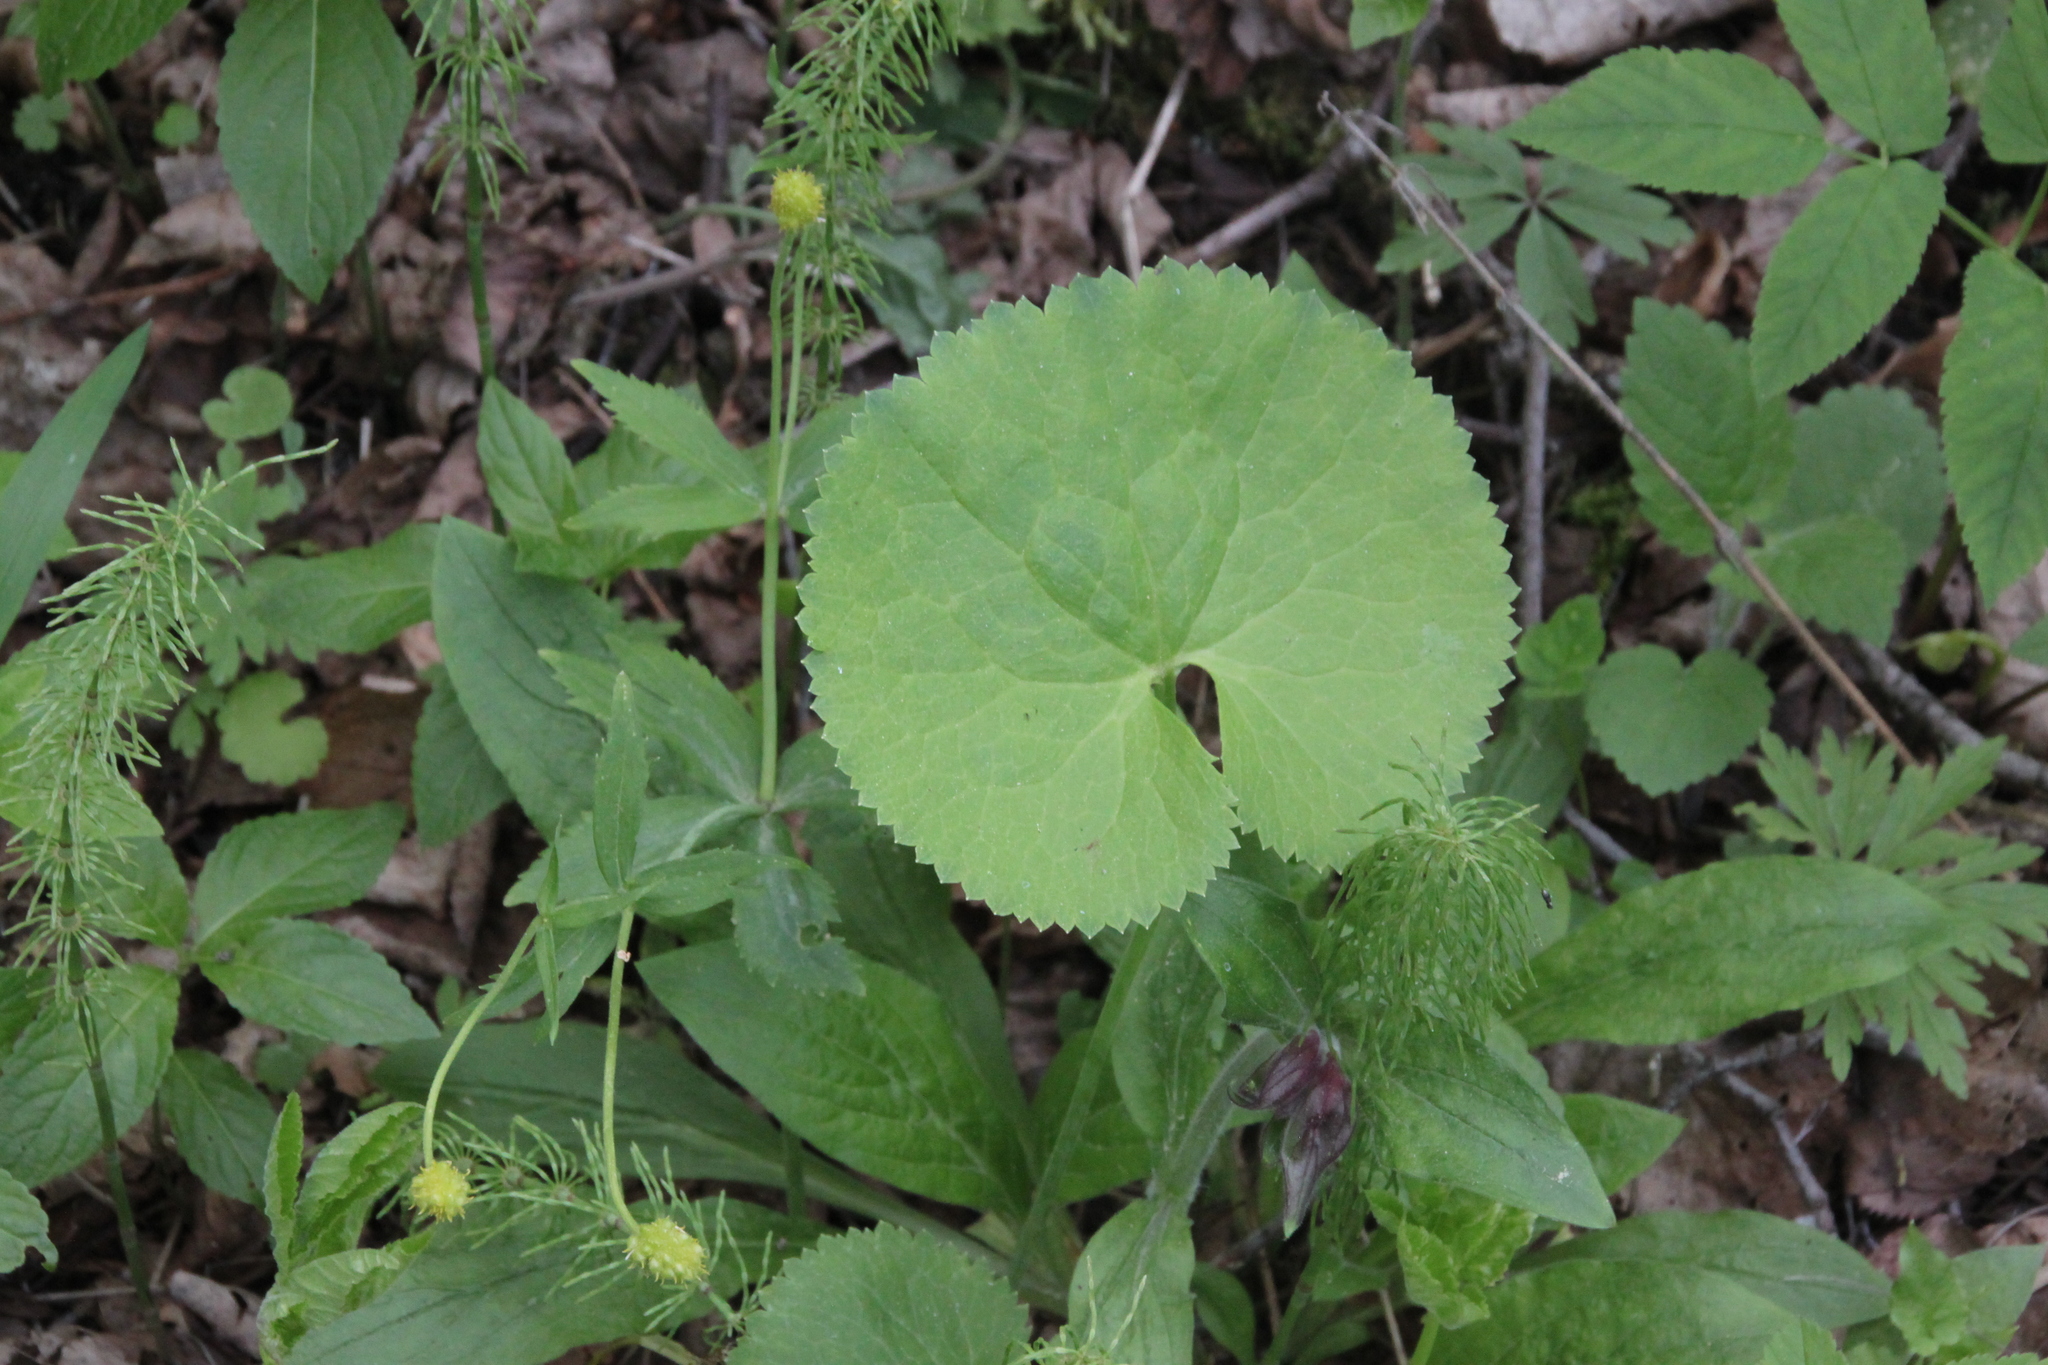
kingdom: Plantae
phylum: Tracheophyta
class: Magnoliopsida
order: Ranunculales
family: Ranunculaceae
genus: Ranunculus
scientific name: Ranunculus cassubicus
